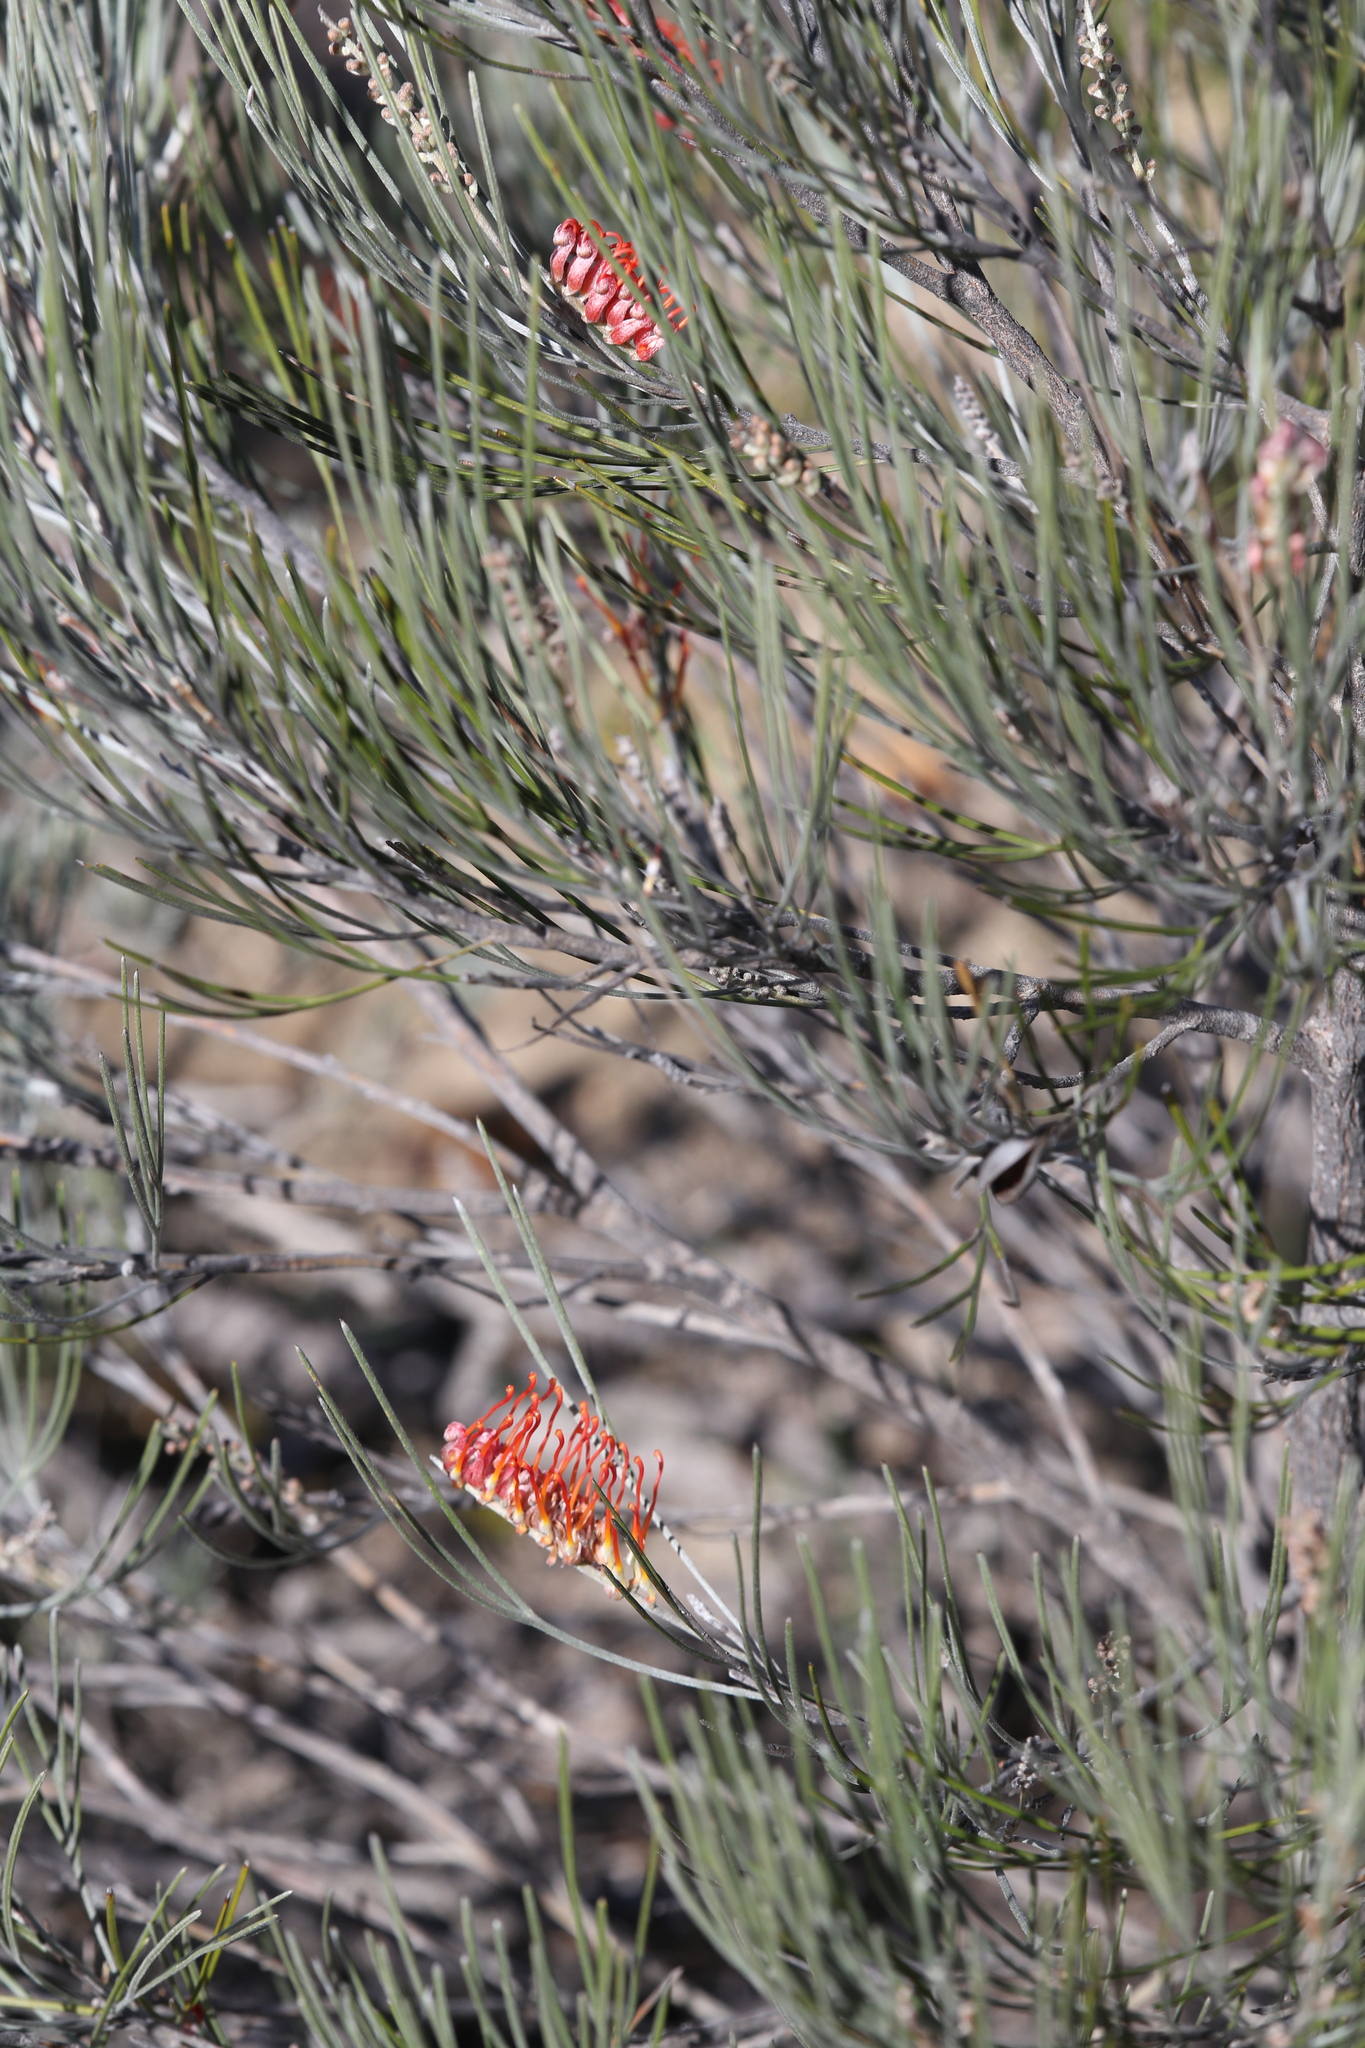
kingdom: Plantae
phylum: Tracheophyta
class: Magnoliopsida
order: Proteales
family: Proteaceae
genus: Grevillea
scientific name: Grevillea cagiana
